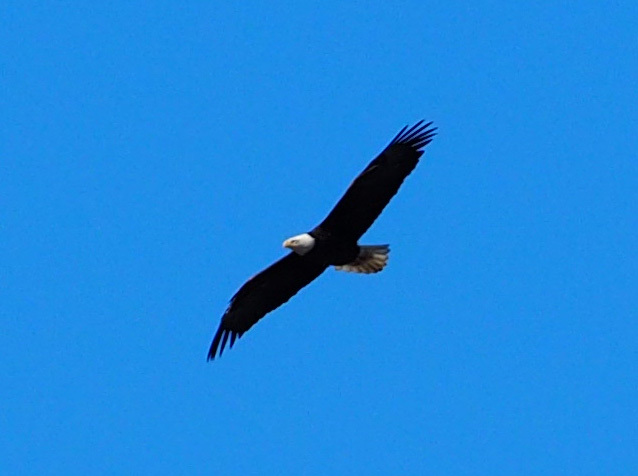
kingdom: Animalia
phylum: Chordata
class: Aves
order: Accipitriformes
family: Accipitridae
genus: Haliaeetus
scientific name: Haliaeetus leucocephalus
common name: Bald eagle
